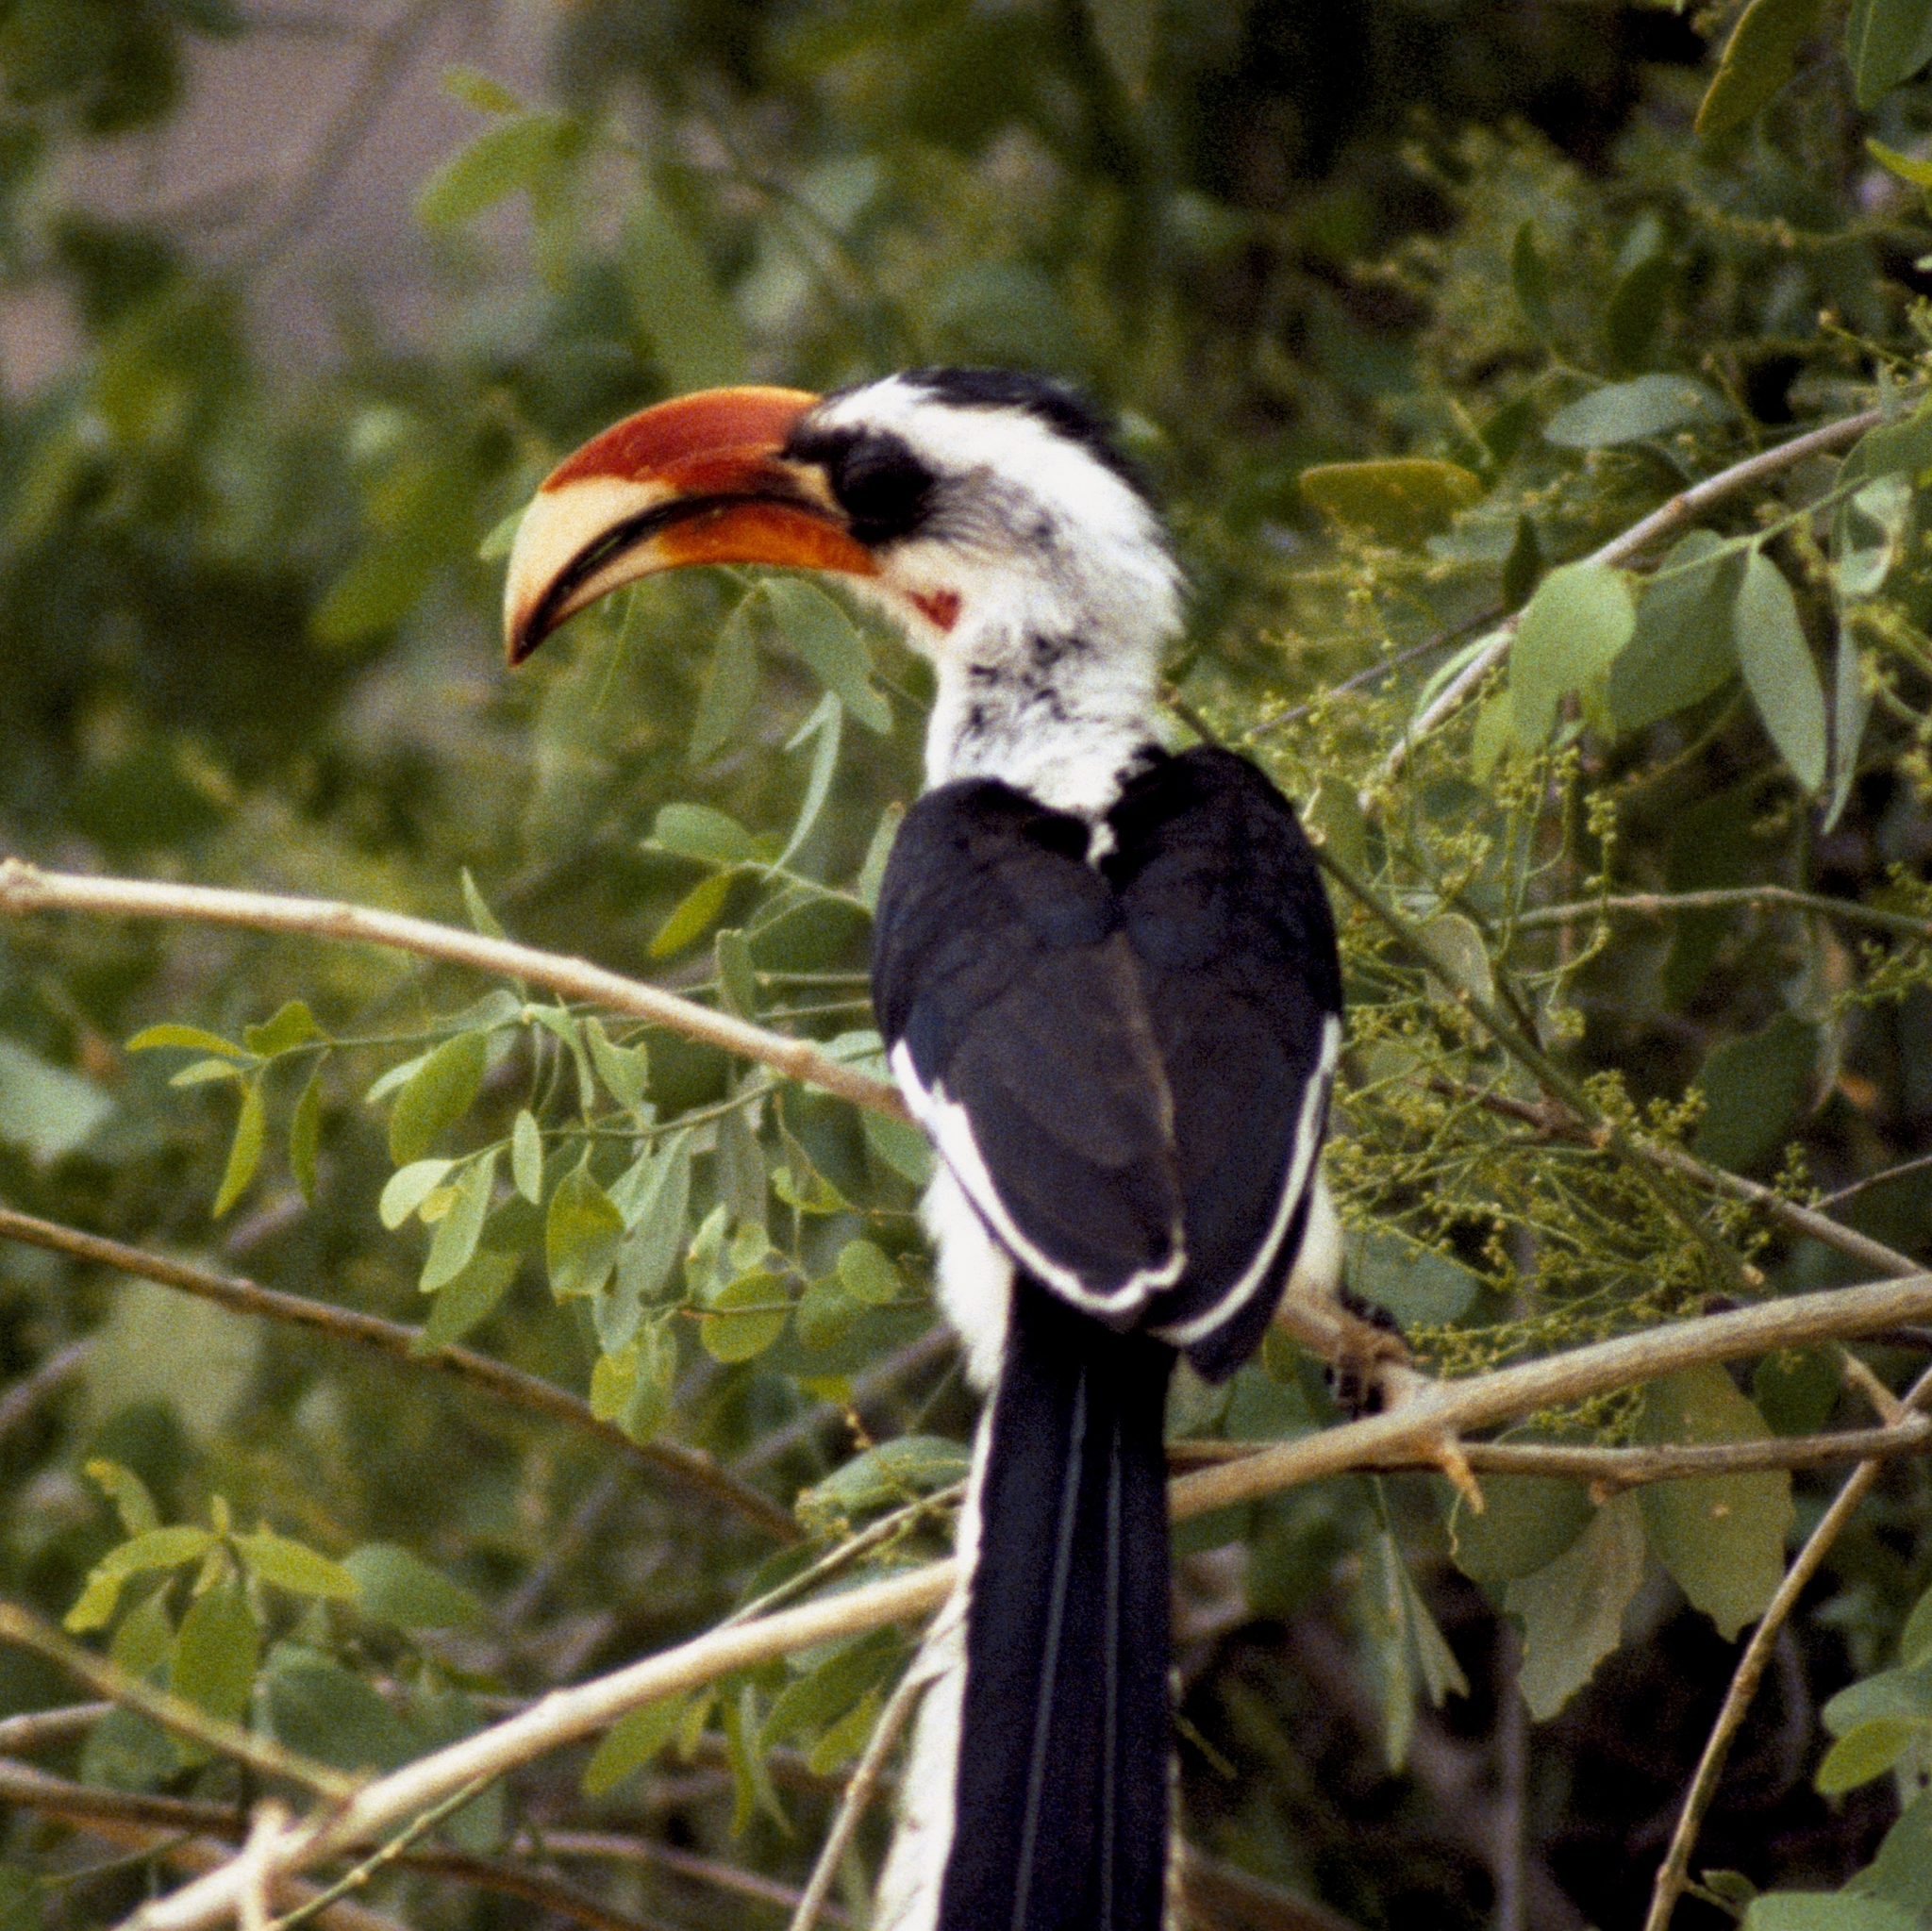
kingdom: Animalia
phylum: Chordata
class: Aves
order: Bucerotiformes
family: Bucerotidae
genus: Tockus
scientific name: Tockus deckeni
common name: Von der decken's hornbill
